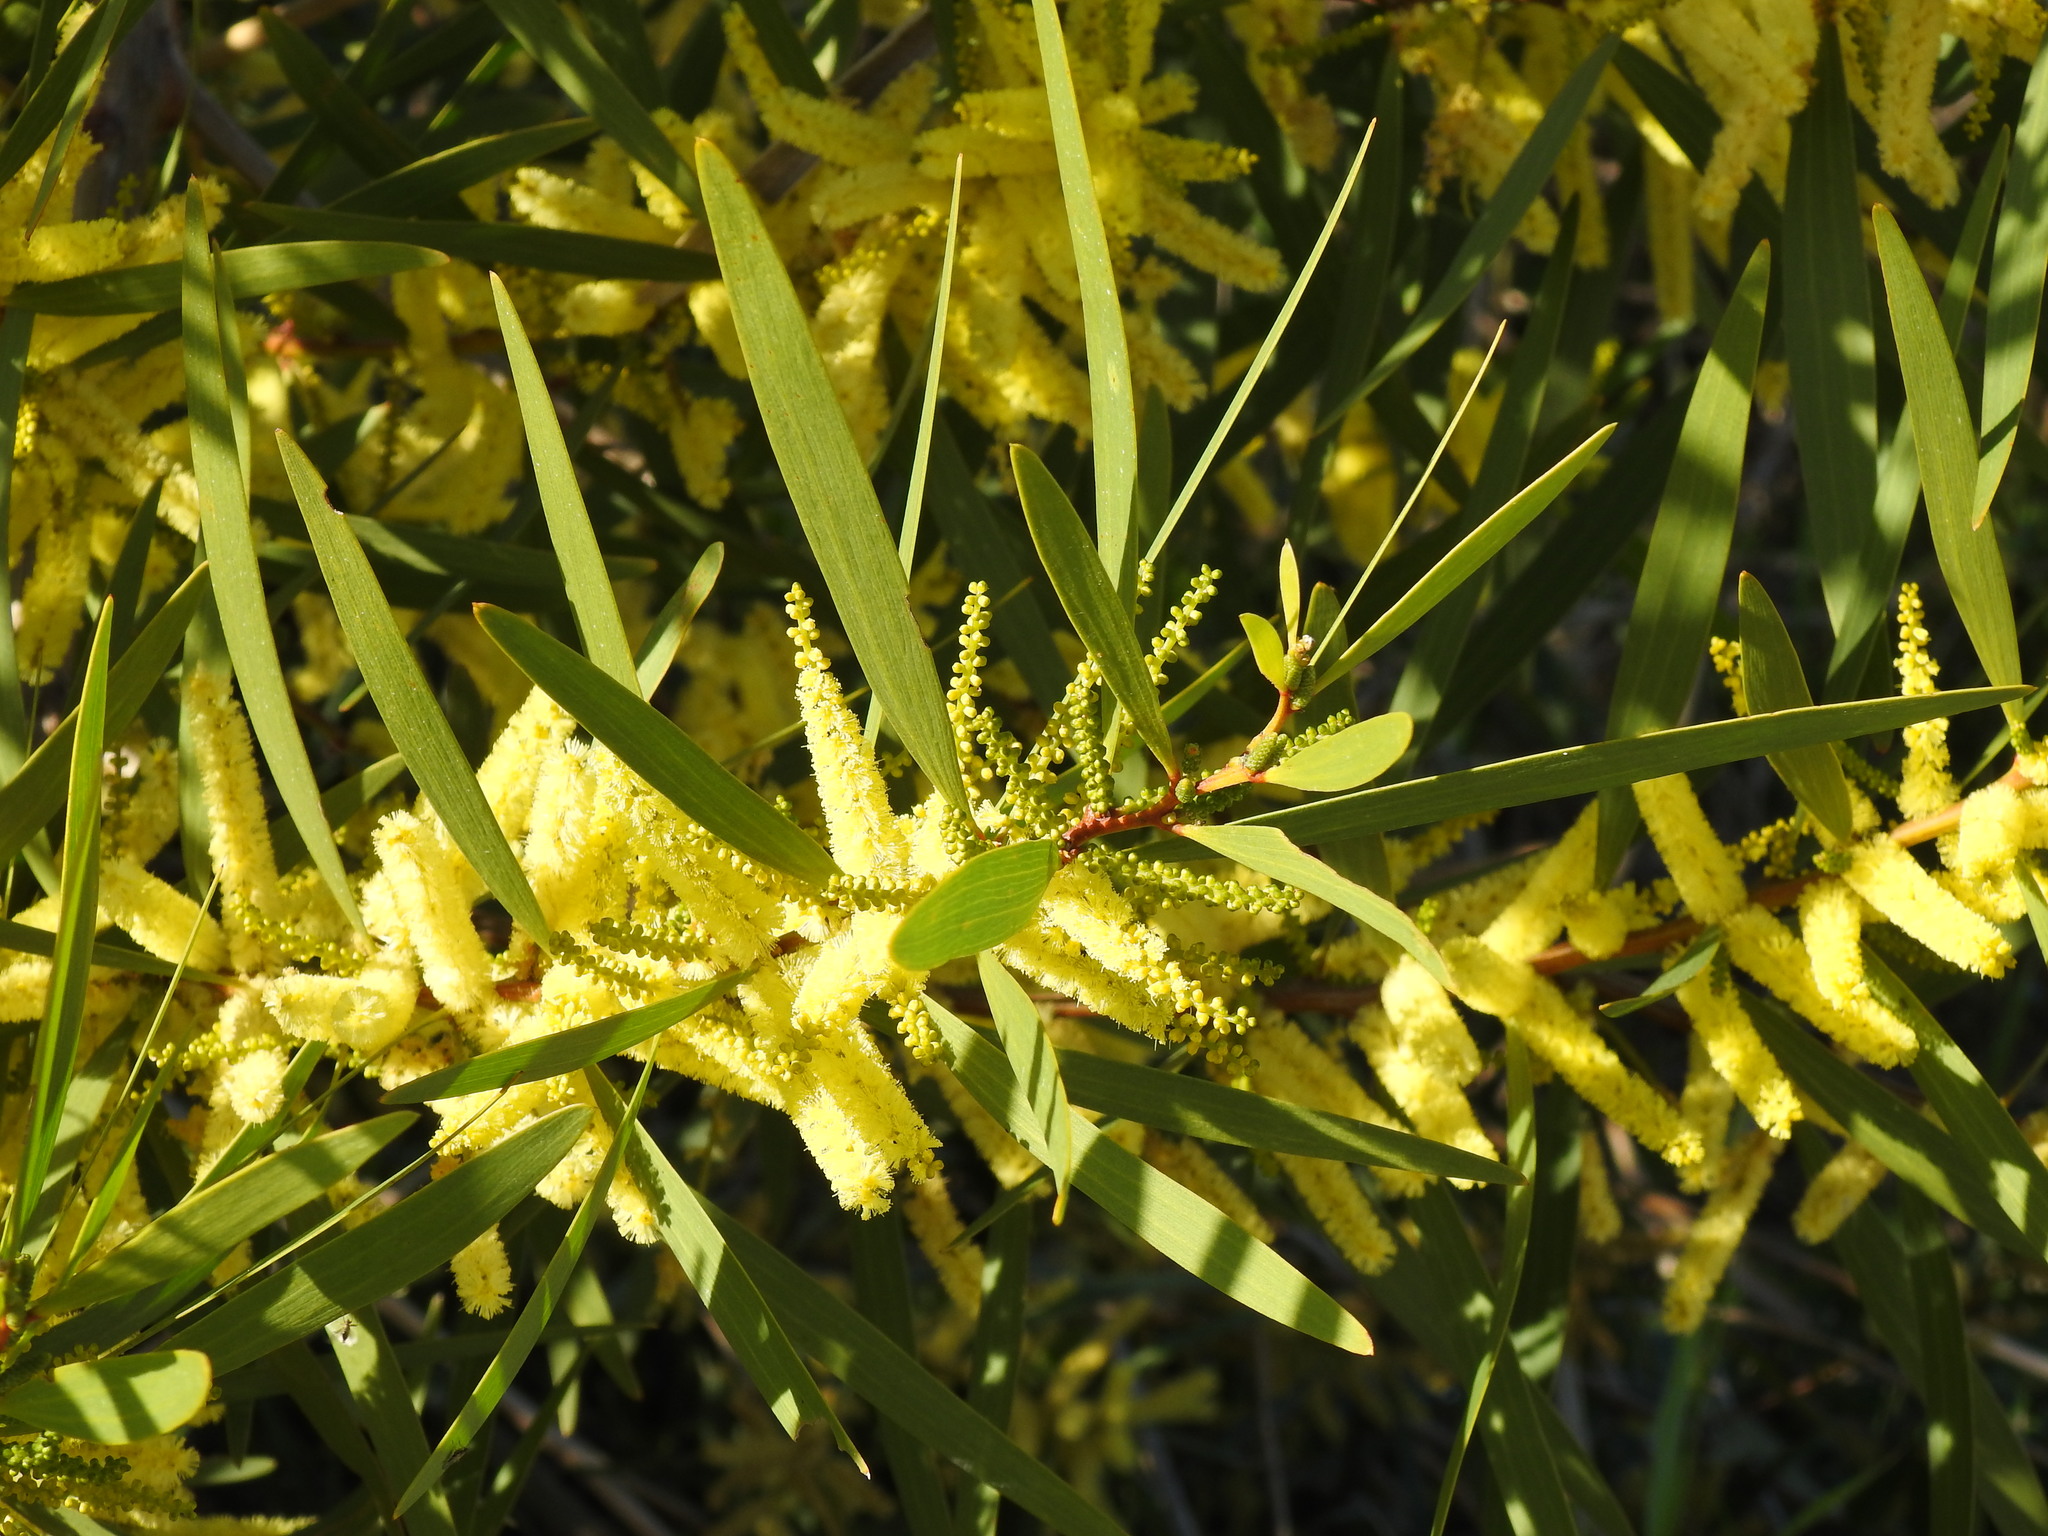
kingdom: Plantae
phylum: Tracheophyta
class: Magnoliopsida
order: Fabales
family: Fabaceae
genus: Acacia
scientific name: Acacia longifolia
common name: Sydney golden wattle
